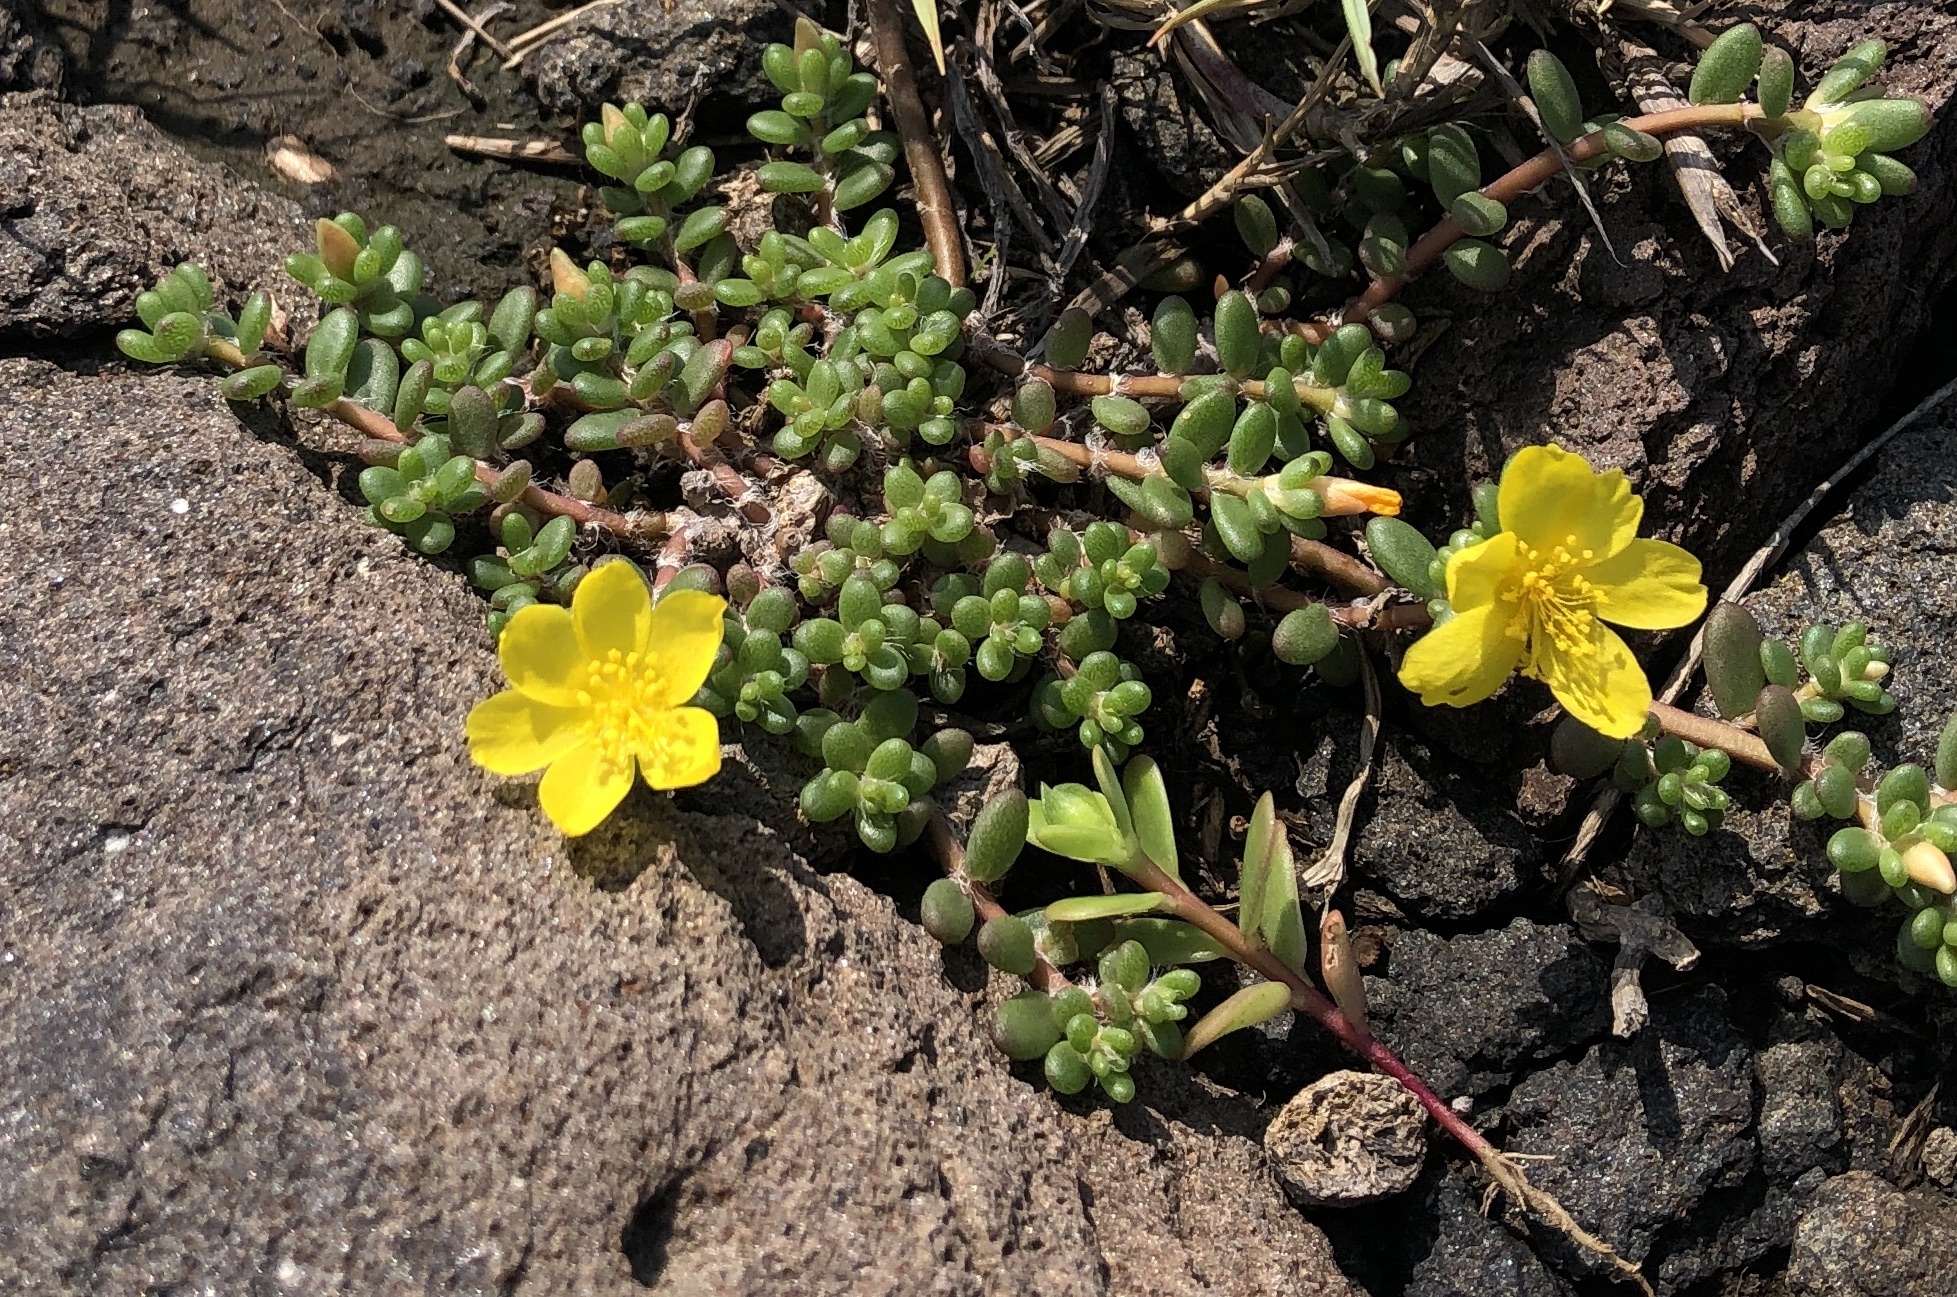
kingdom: Plantae
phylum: Tracheophyta
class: Magnoliopsida
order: Caryophyllales
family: Portulacaceae
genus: Portulaca
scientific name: Portulaca psammotropha
